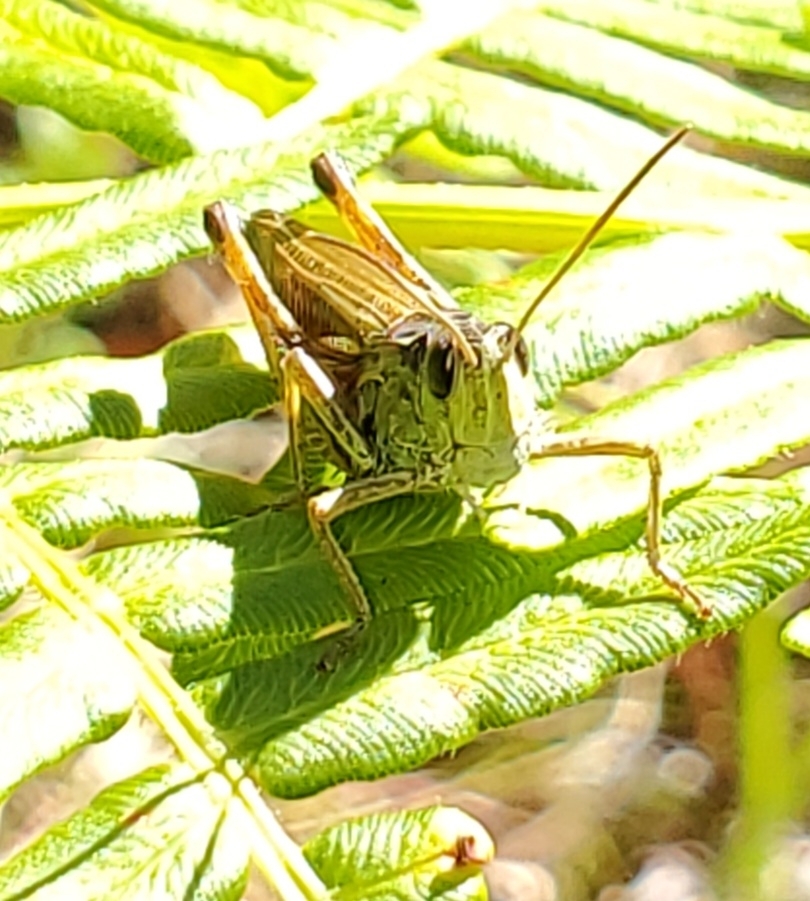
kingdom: Animalia
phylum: Arthropoda
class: Insecta
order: Orthoptera
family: Acrididae
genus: Stauroderus
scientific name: Stauroderus scalaris
